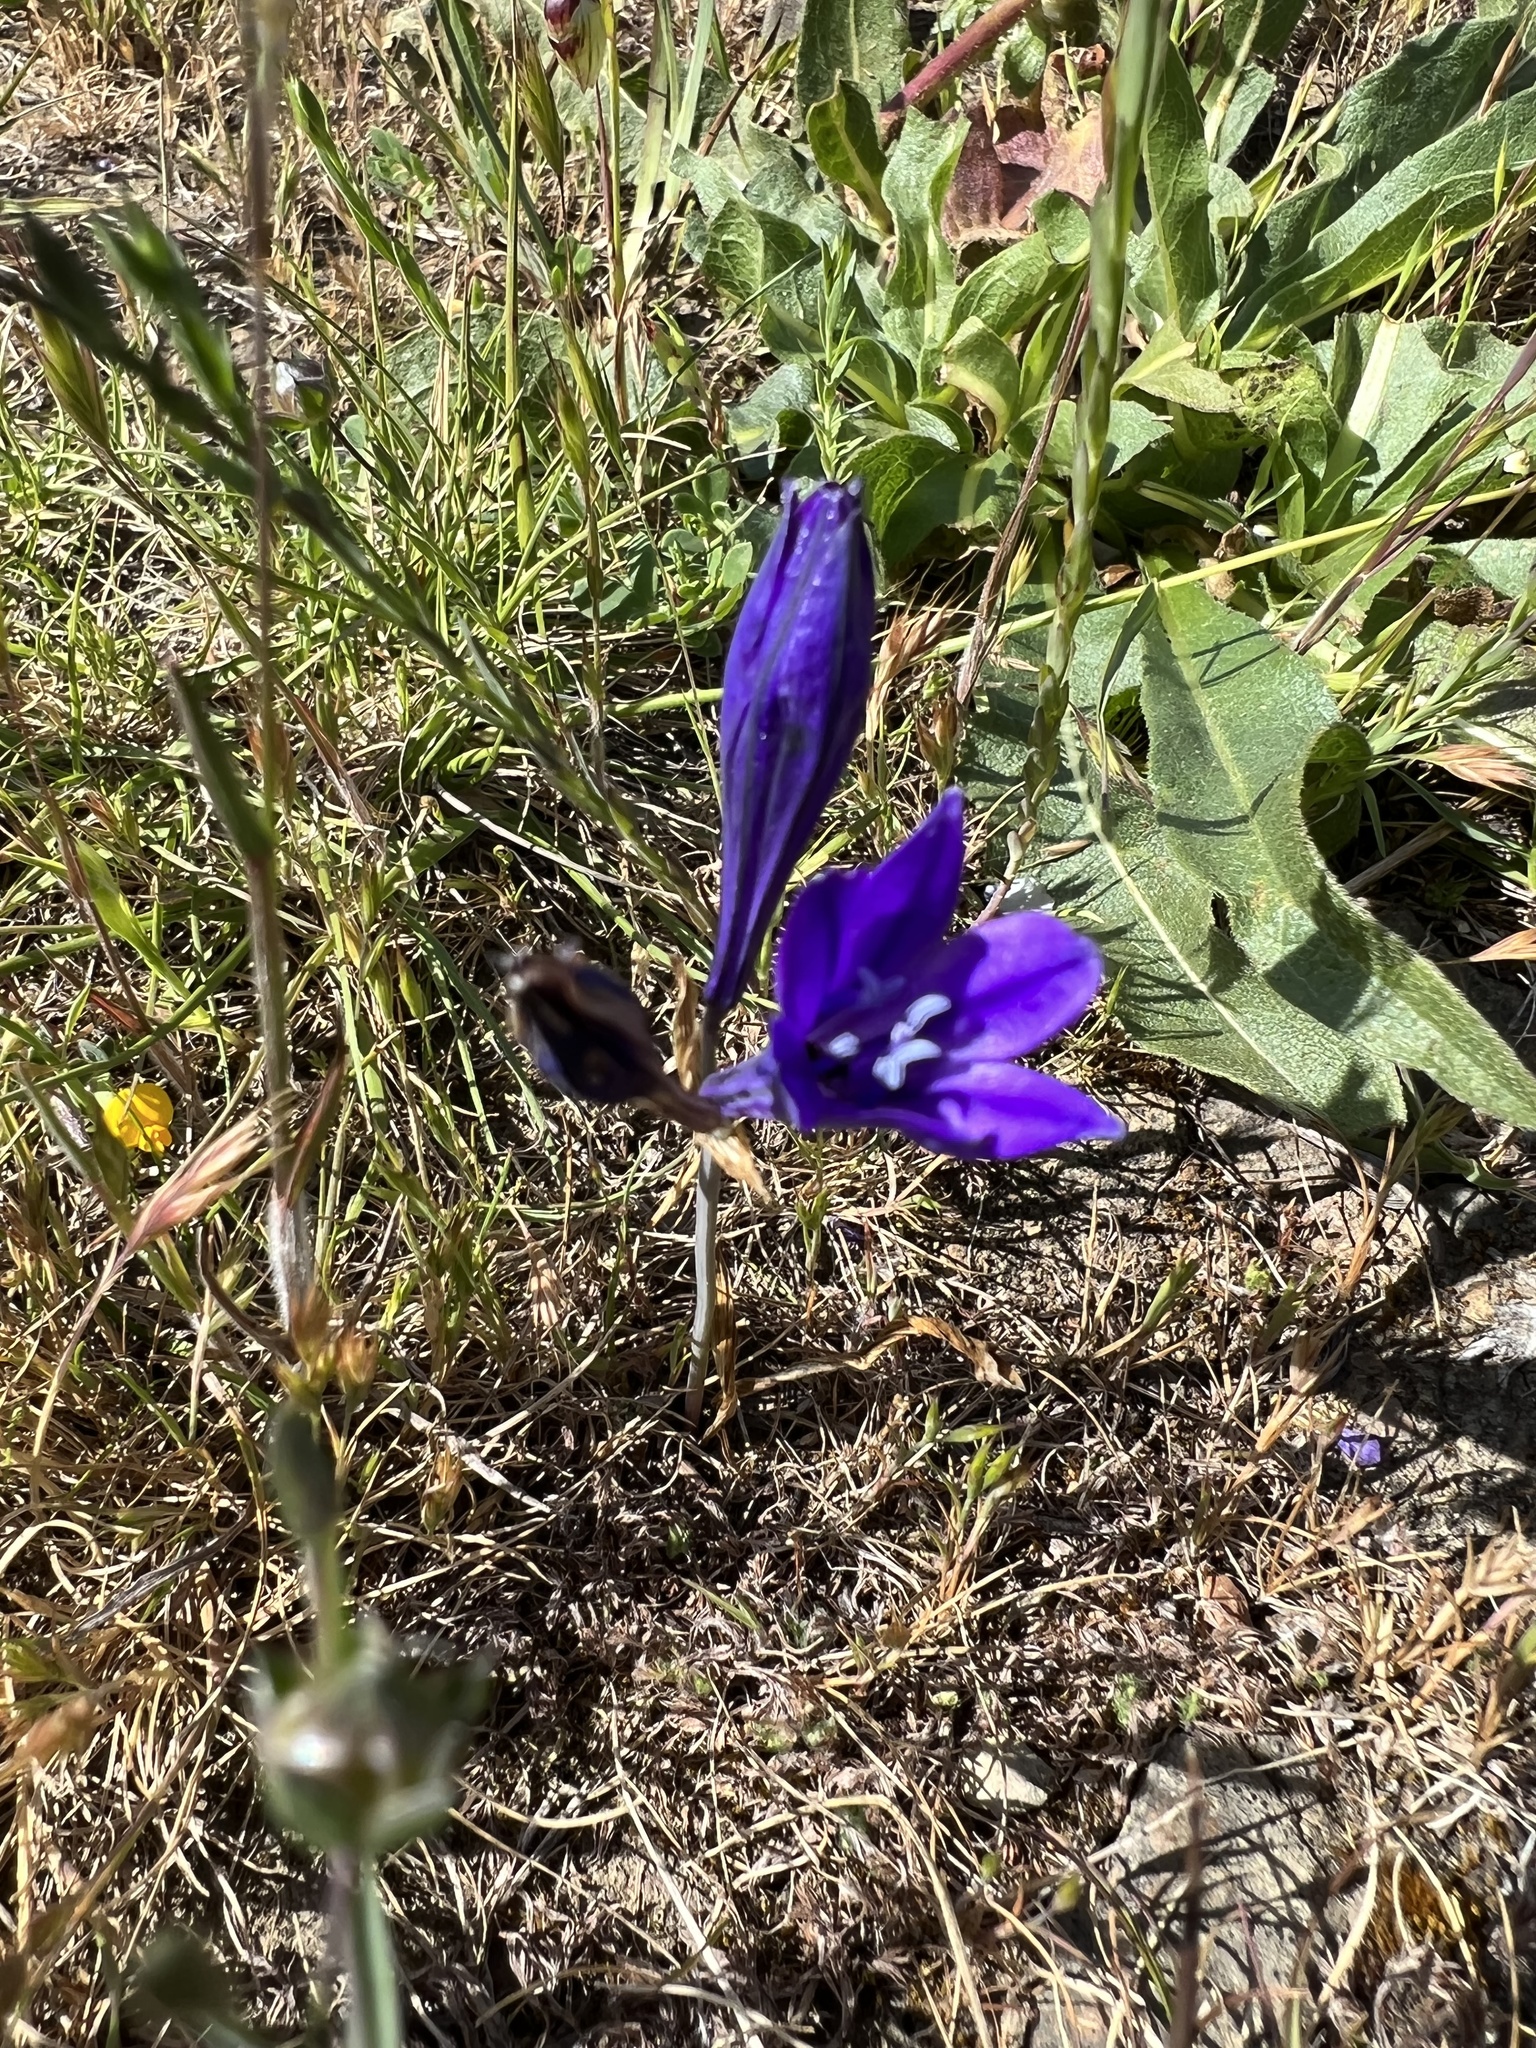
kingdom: Plantae
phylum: Tracheophyta
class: Liliopsida
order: Asparagales
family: Asparagaceae
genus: Triteleia
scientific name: Triteleia laxa
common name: Triplet-lily
